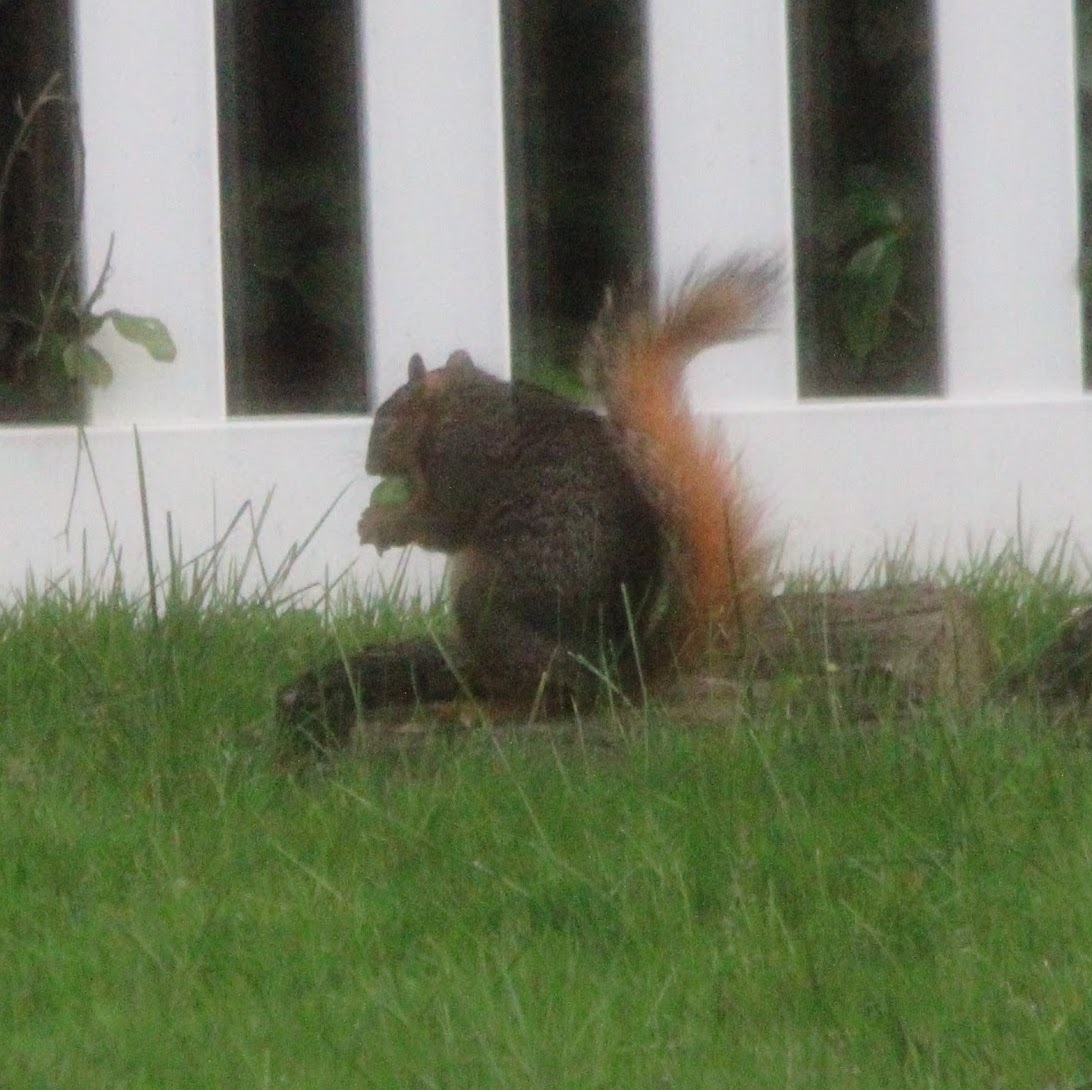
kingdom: Animalia
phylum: Chordata
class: Mammalia
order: Rodentia
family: Sciuridae
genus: Sciurus
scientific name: Sciurus niger
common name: Fox squirrel
